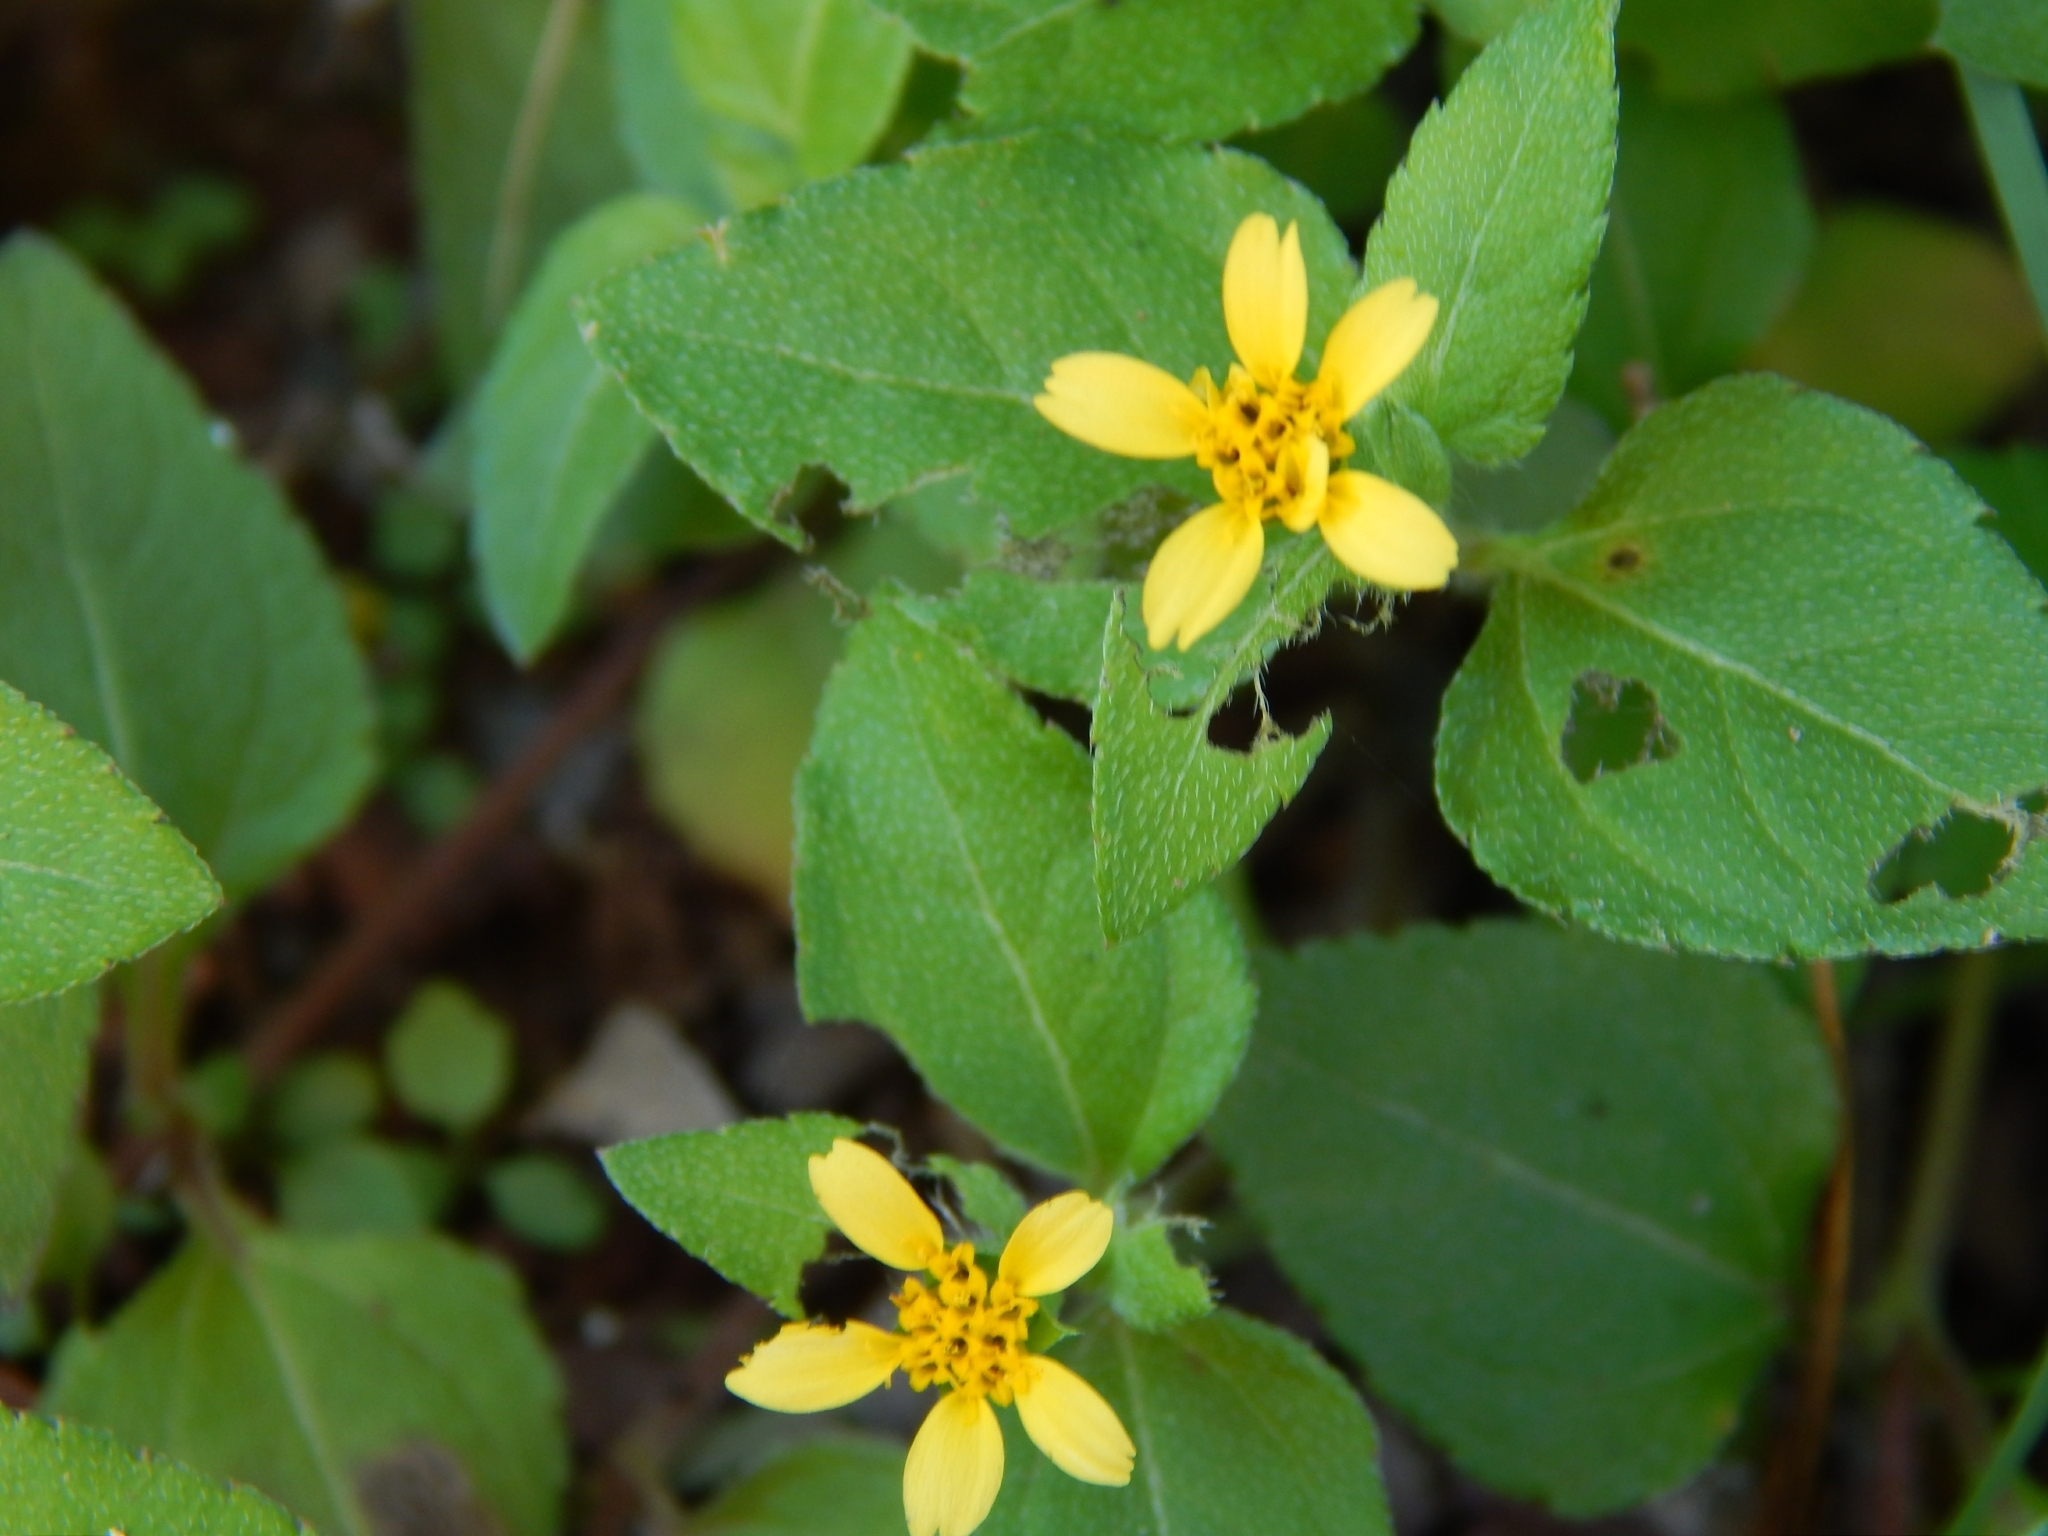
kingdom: Plantae
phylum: Tracheophyta
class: Magnoliopsida
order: Asterales
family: Asteraceae
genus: Calyptocarpus
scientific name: Calyptocarpus vialis
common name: Straggler daisy
